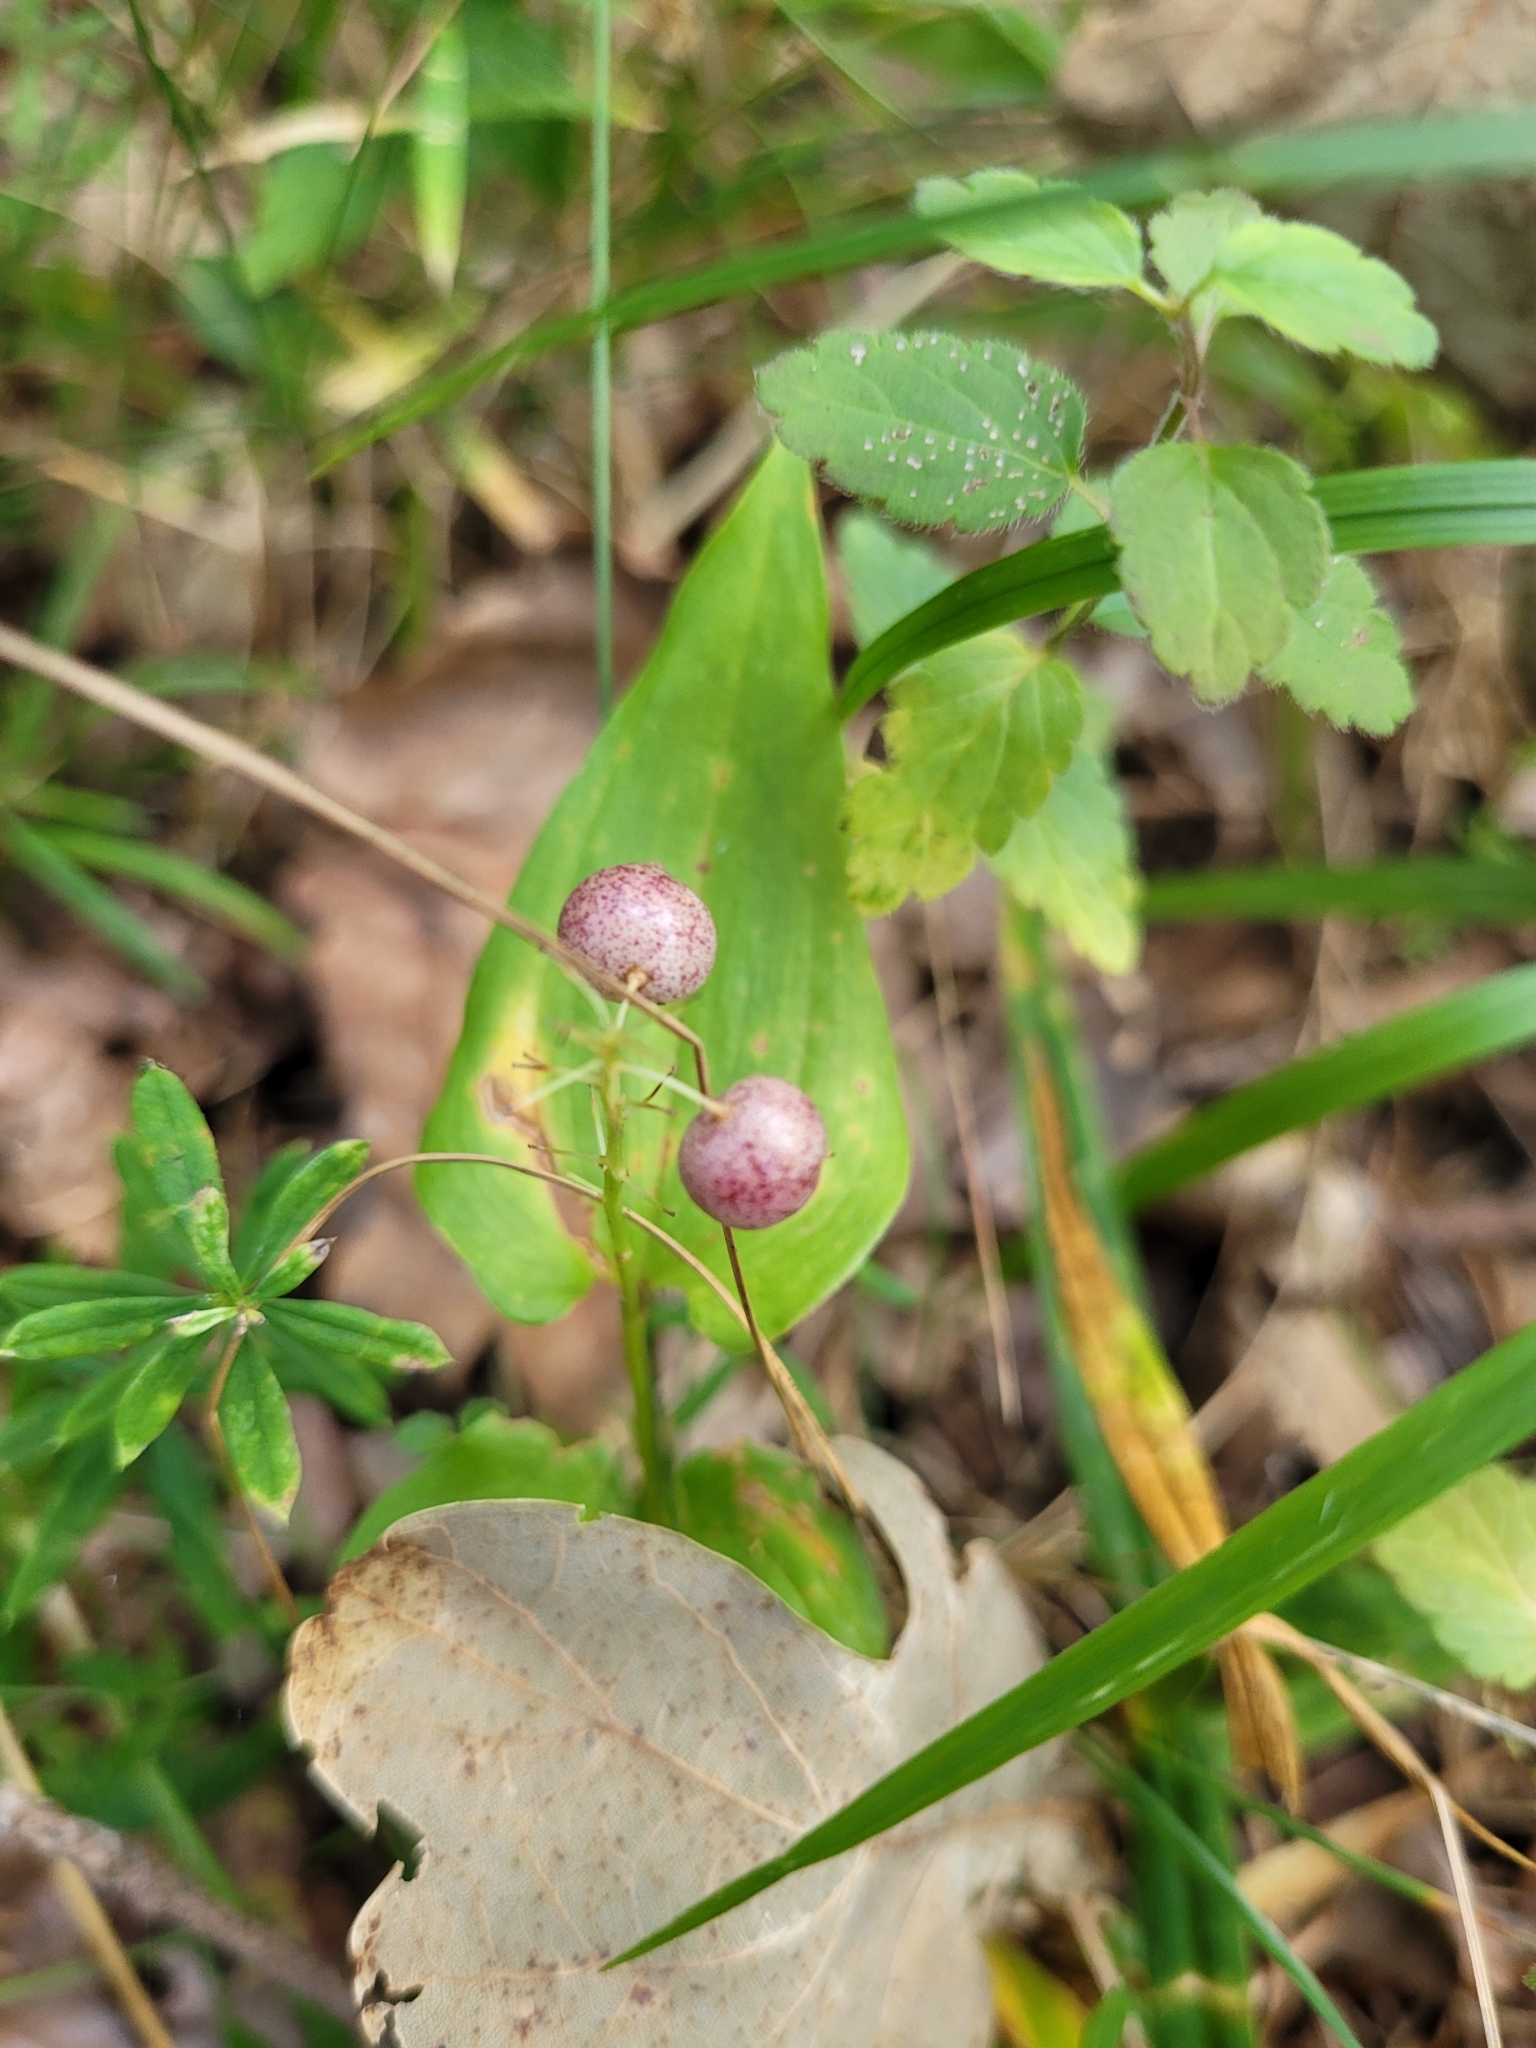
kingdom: Plantae
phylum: Tracheophyta
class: Liliopsida
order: Asparagales
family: Asparagaceae
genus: Maianthemum
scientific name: Maianthemum bifolium
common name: May lily
